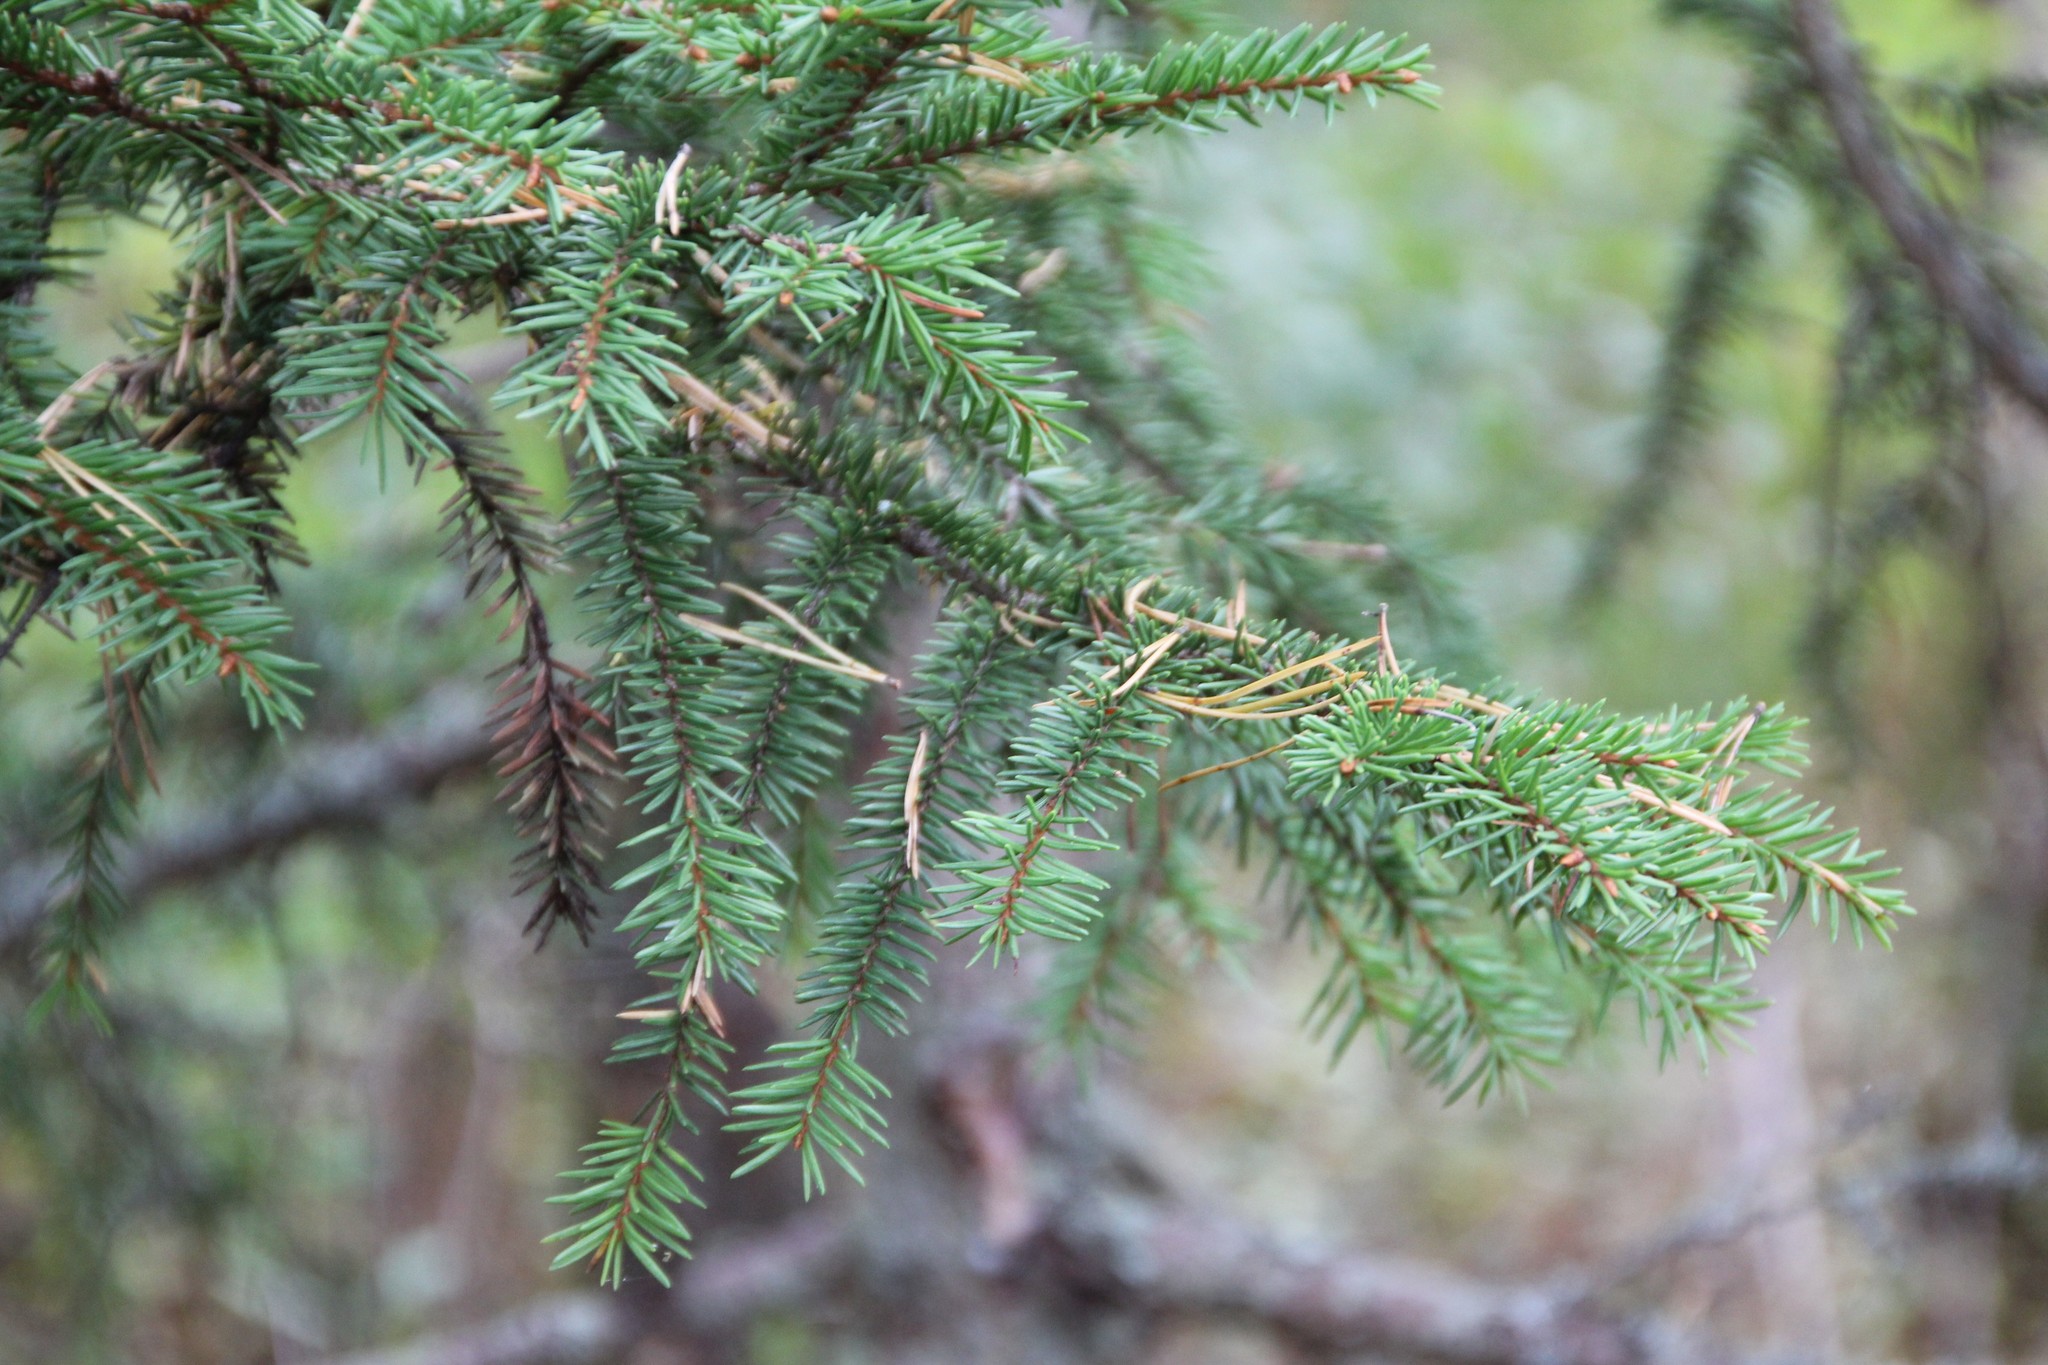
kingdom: Plantae
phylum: Tracheophyta
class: Pinopsida
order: Pinales
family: Pinaceae
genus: Picea
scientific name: Picea abies
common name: Norway spruce
